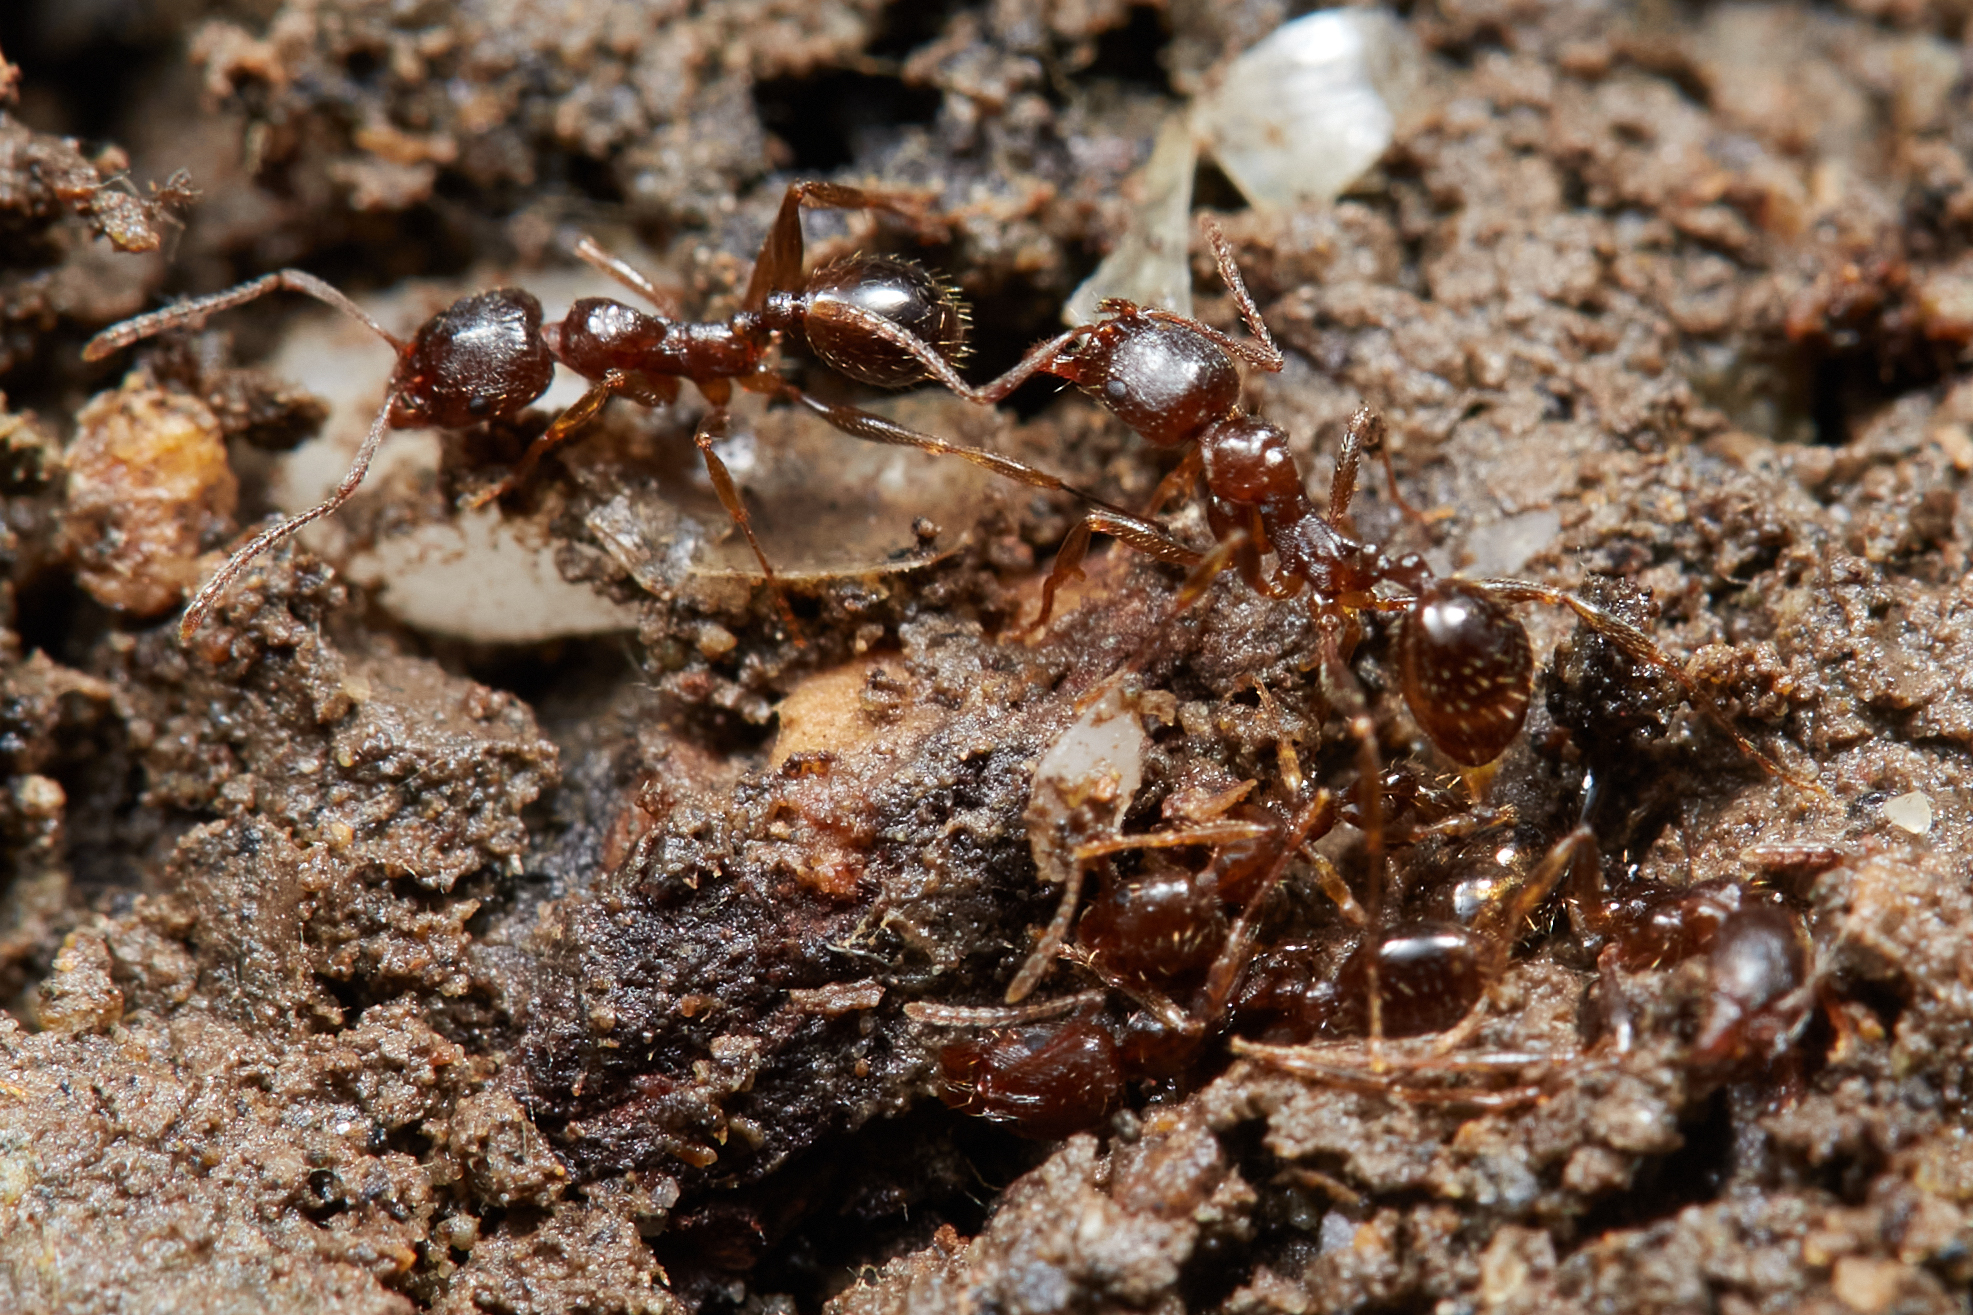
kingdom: Animalia
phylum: Arthropoda
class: Insecta
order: Hymenoptera
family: Formicidae
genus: Aphaenogaster
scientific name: Aphaenogaster occidentalis
